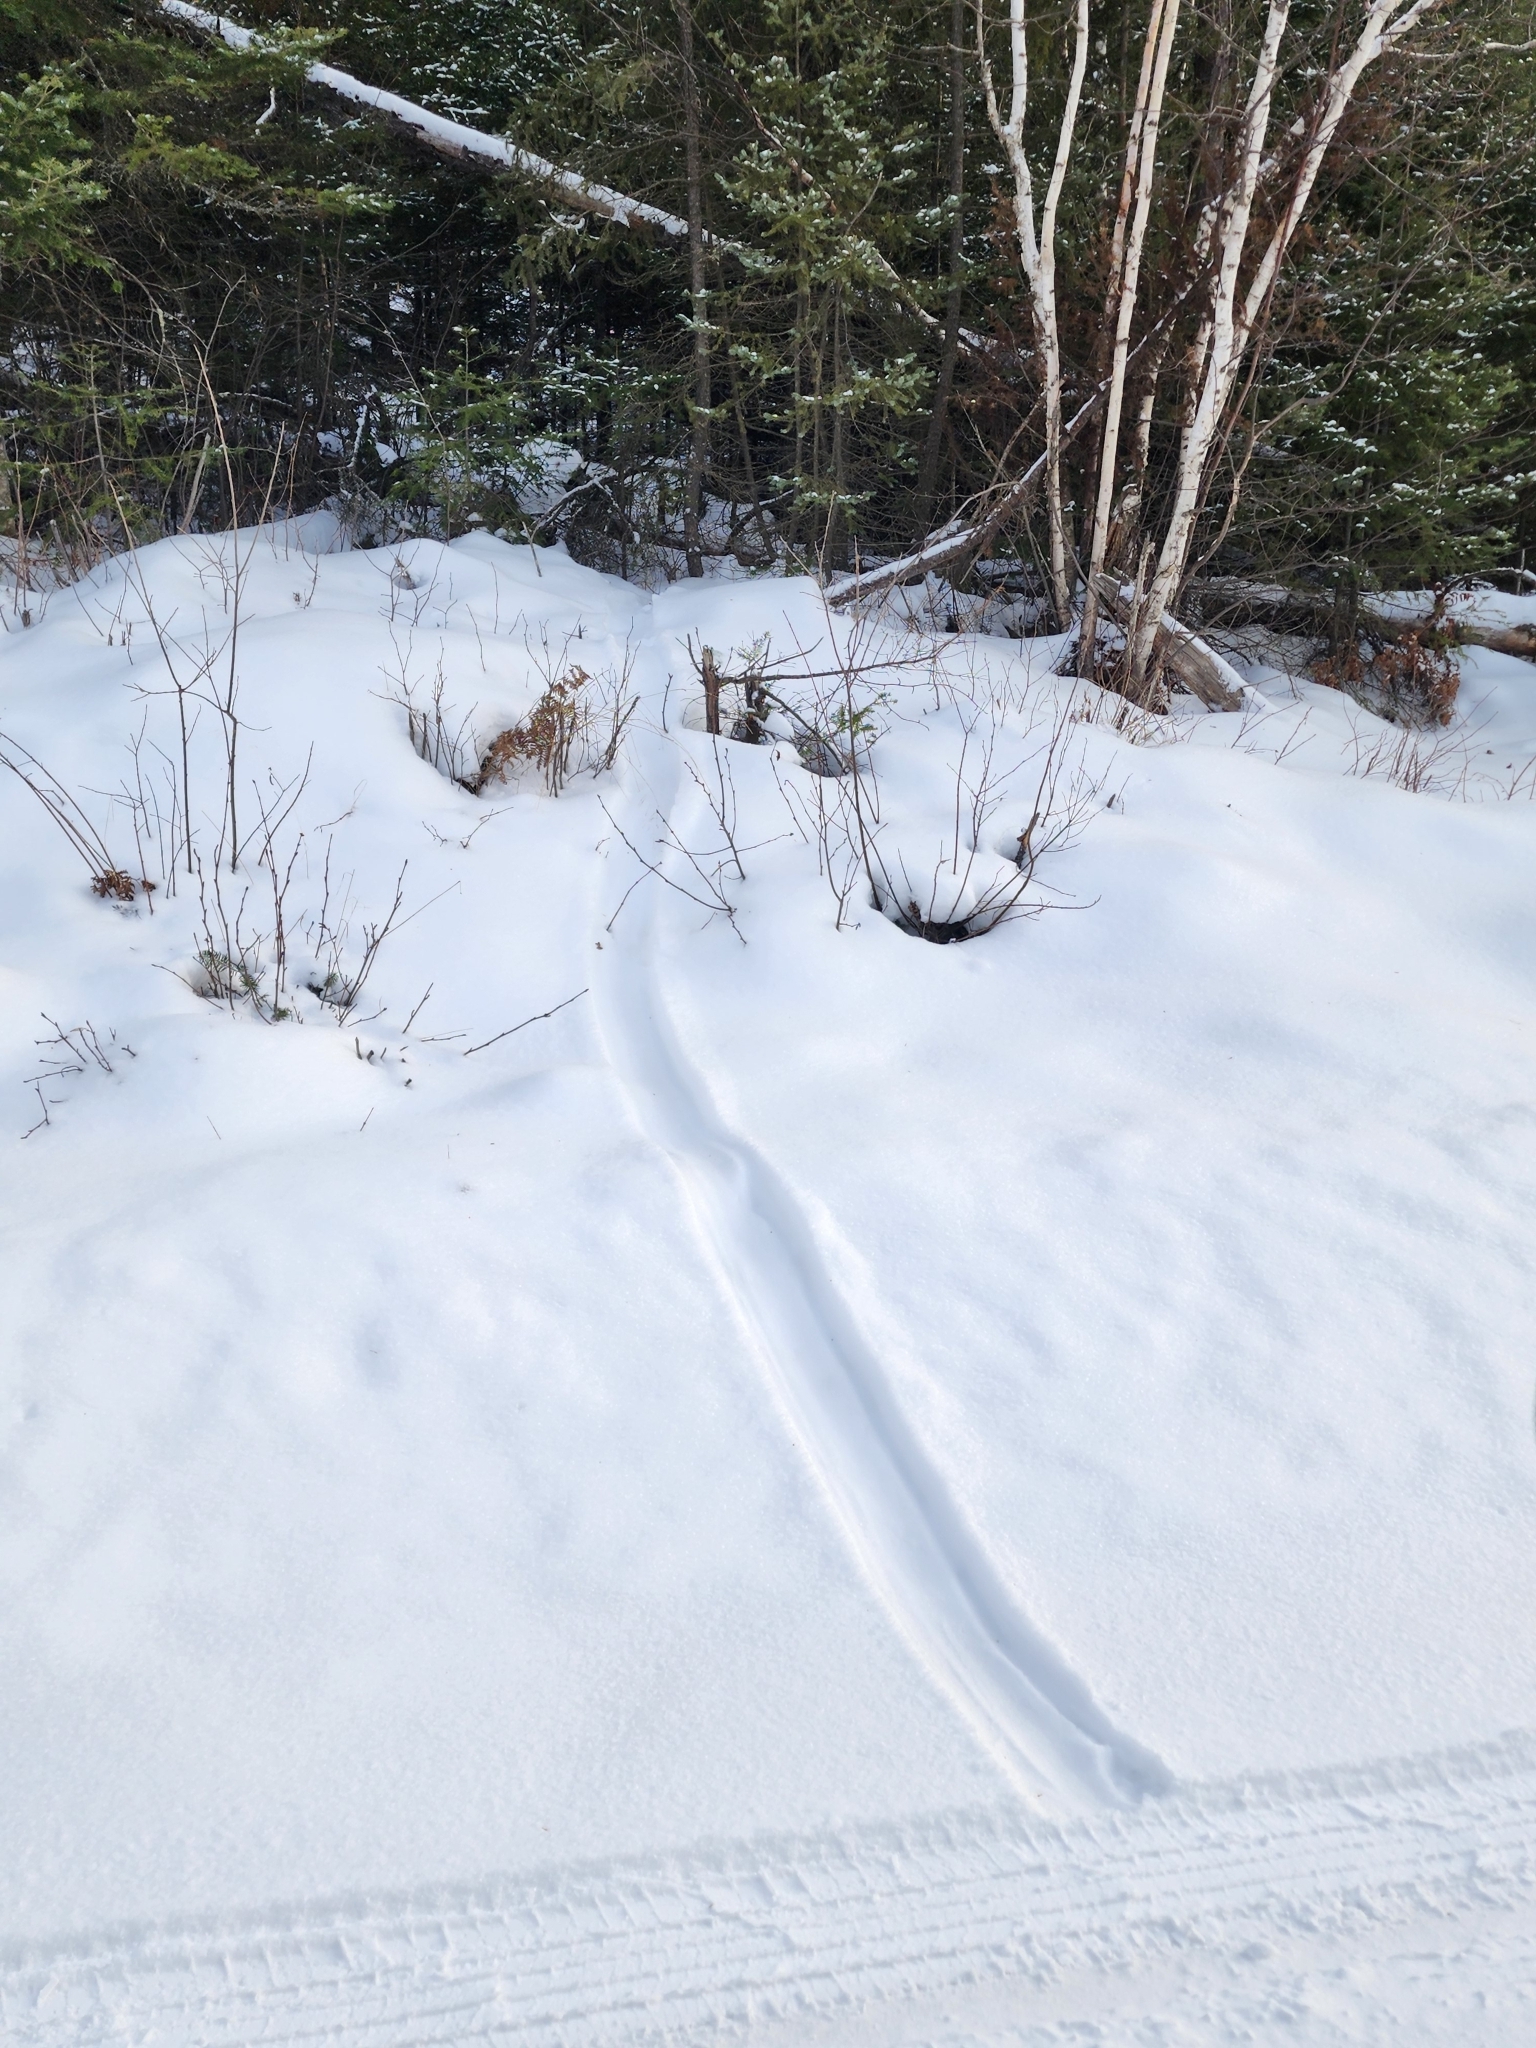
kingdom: Animalia
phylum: Chordata
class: Mammalia
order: Carnivora
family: Mustelidae
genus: Lontra
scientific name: Lontra canadensis
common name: North american river otter
